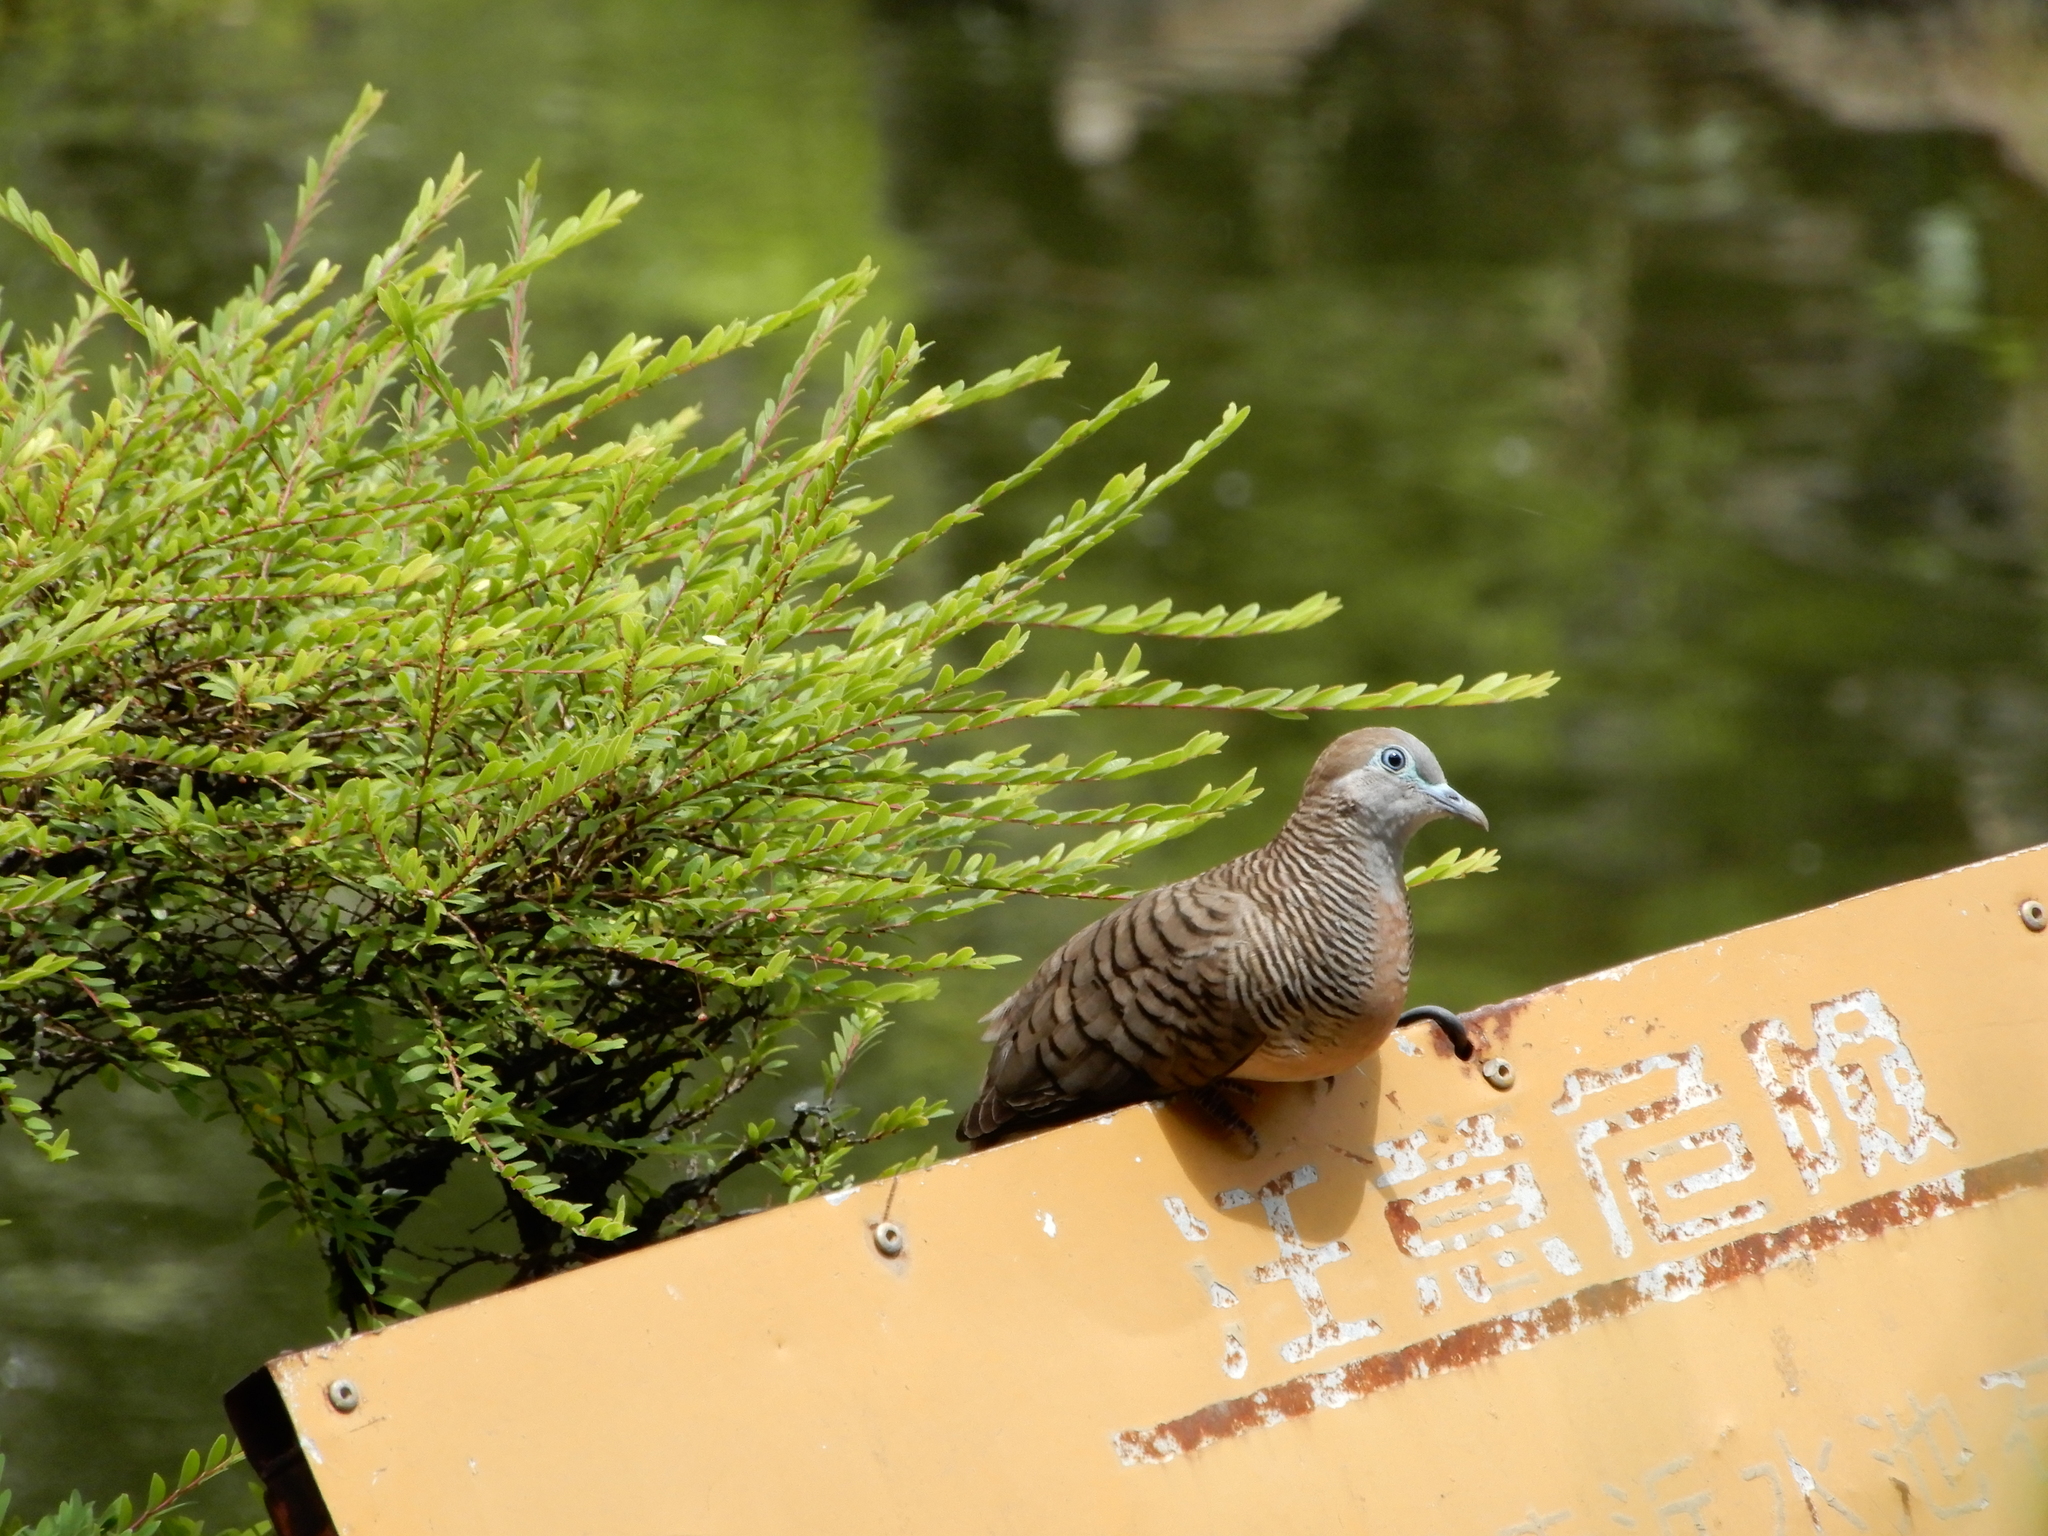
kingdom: Animalia
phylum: Chordata
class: Aves
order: Columbiformes
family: Columbidae
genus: Geopelia
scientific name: Geopelia striata
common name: Zebra dove
